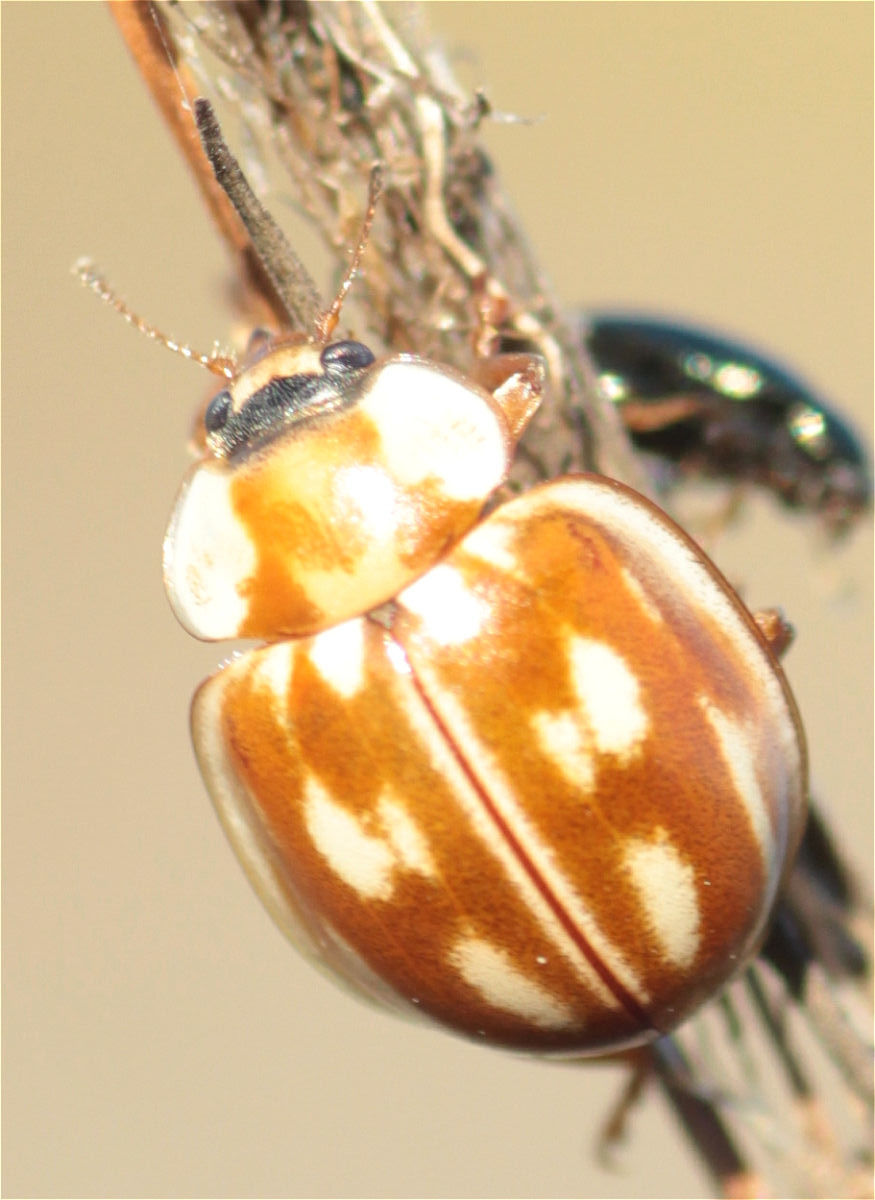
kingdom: Animalia
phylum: Arthropoda
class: Insecta
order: Coleoptera
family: Coccinellidae
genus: Myzia
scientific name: Myzia oblongoguttata
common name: Striped ladybird
